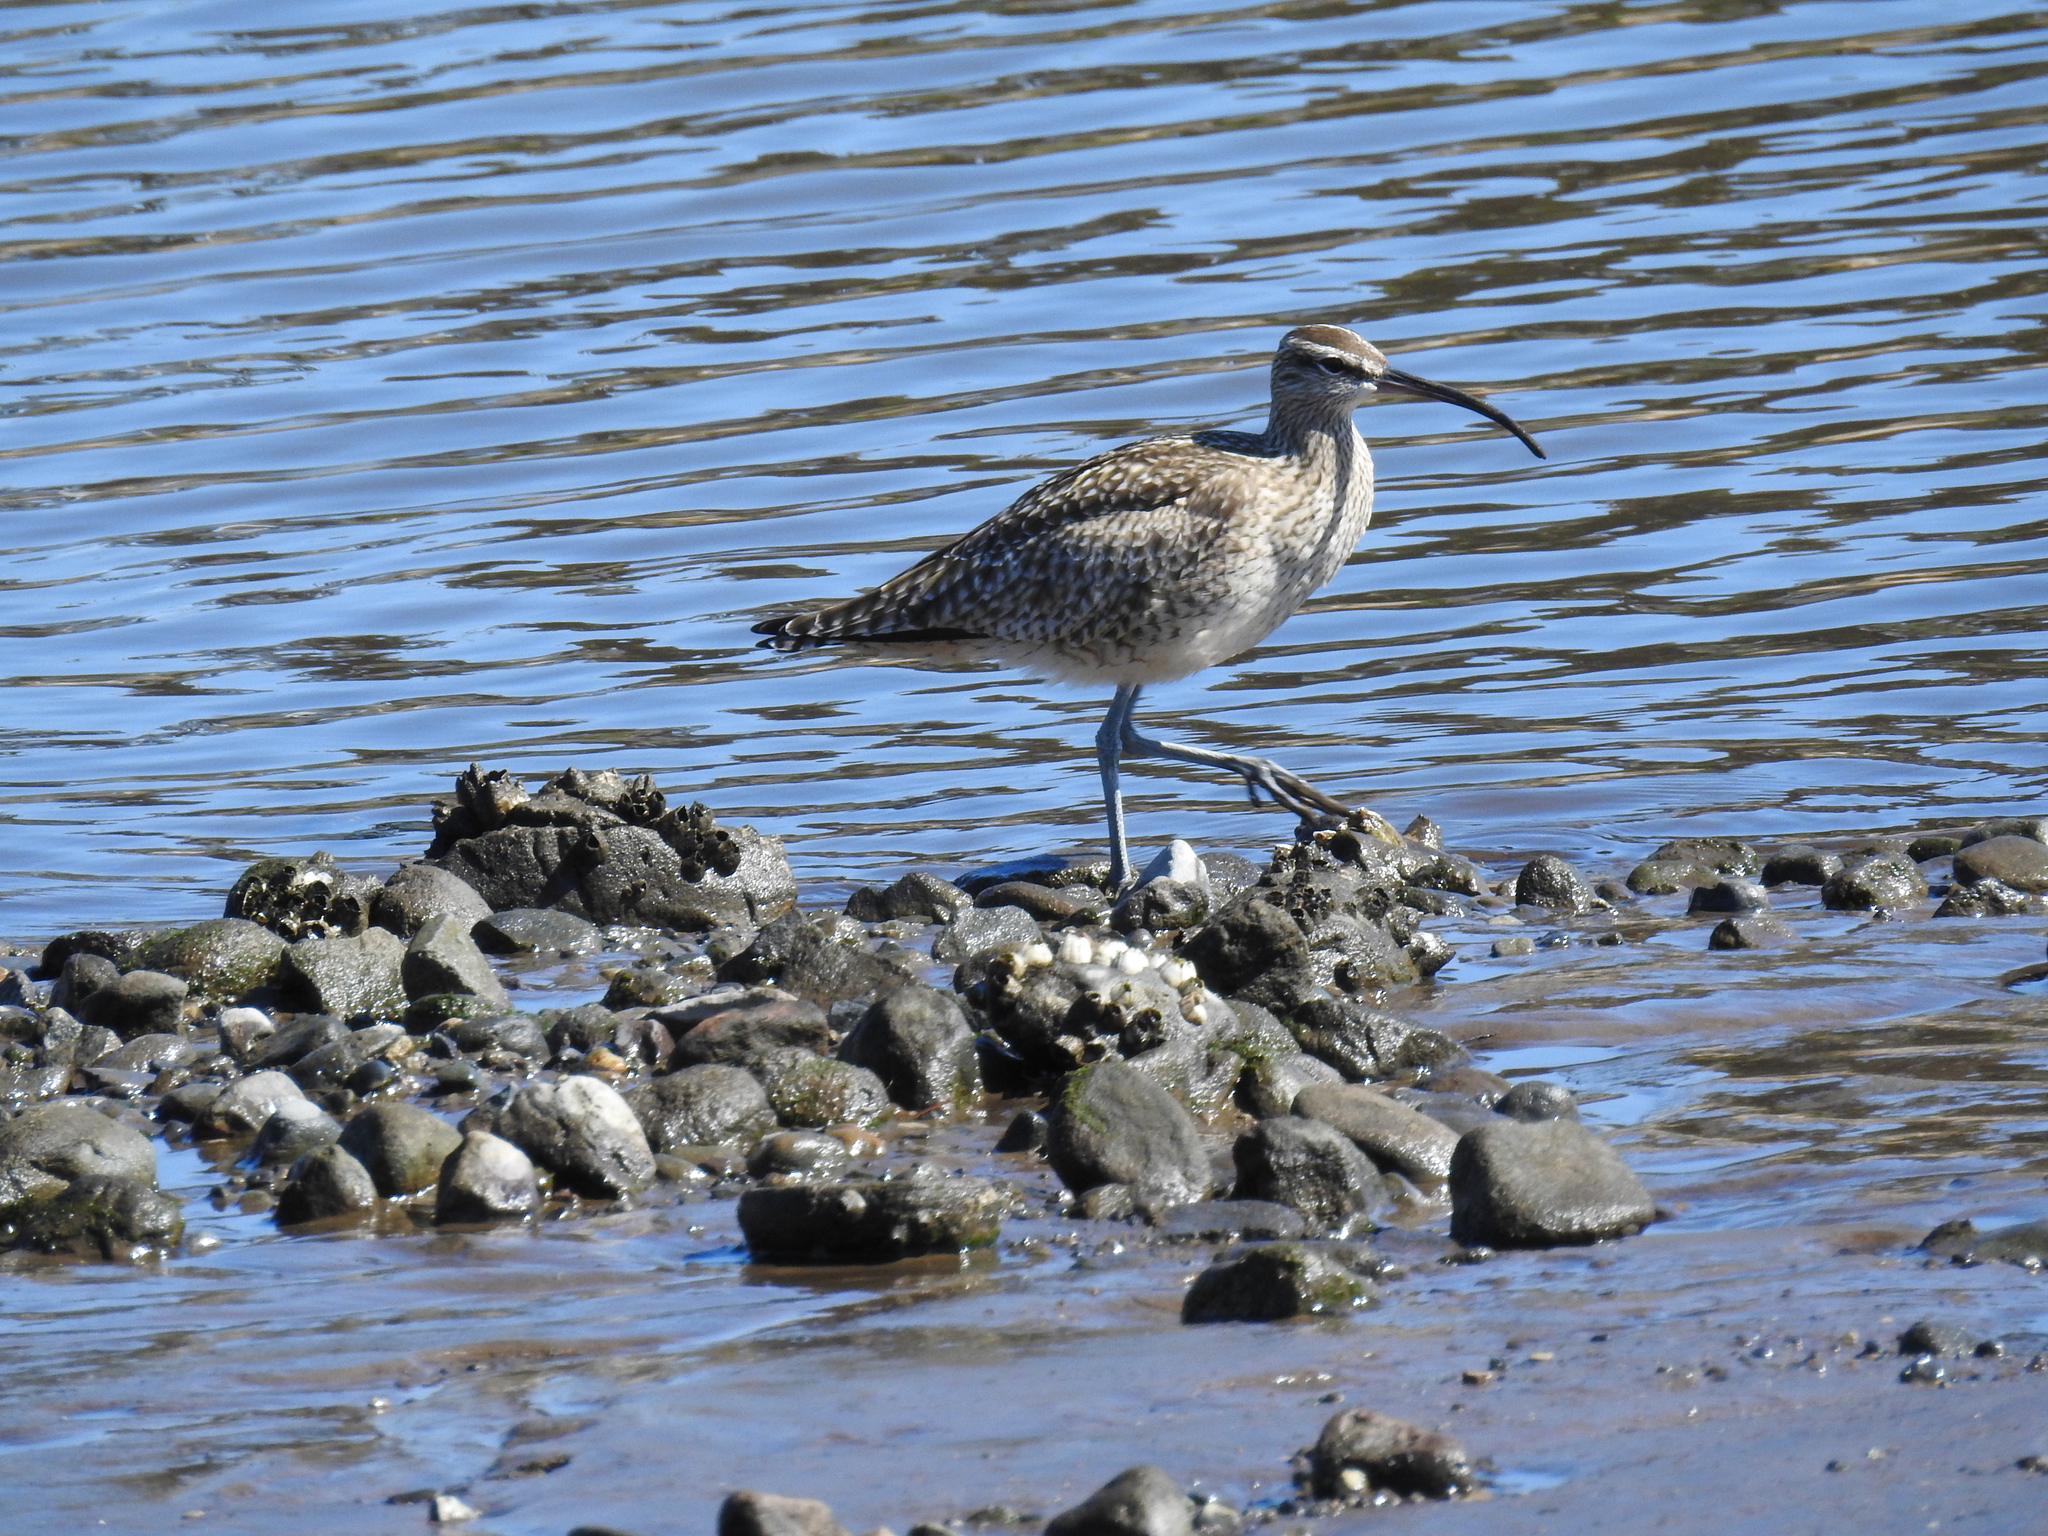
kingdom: Animalia
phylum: Chordata
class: Aves
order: Charadriiformes
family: Scolopacidae
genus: Numenius
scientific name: Numenius phaeopus
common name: Whimbrel
